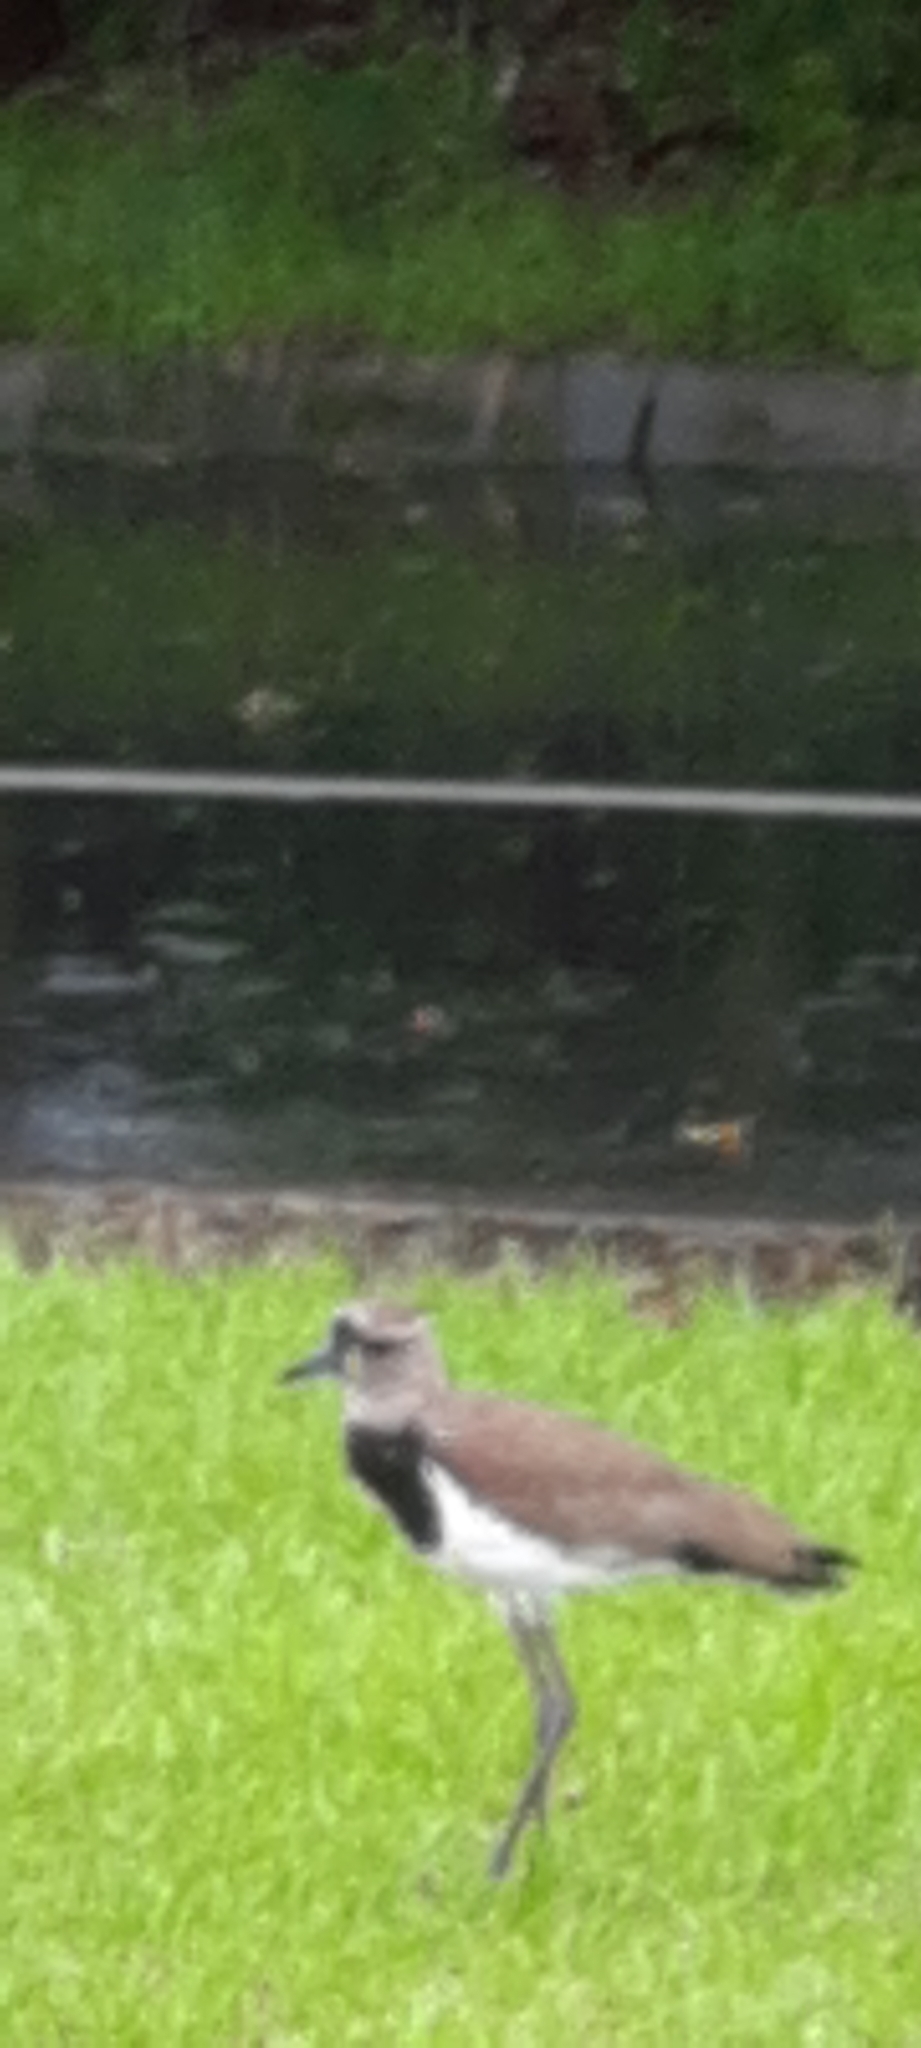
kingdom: Animalia
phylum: Chordata
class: Aves
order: Charadriiformes
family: Charadriidae
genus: Vanellus
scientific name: Vanellus chilensis
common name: Southern lapwing
